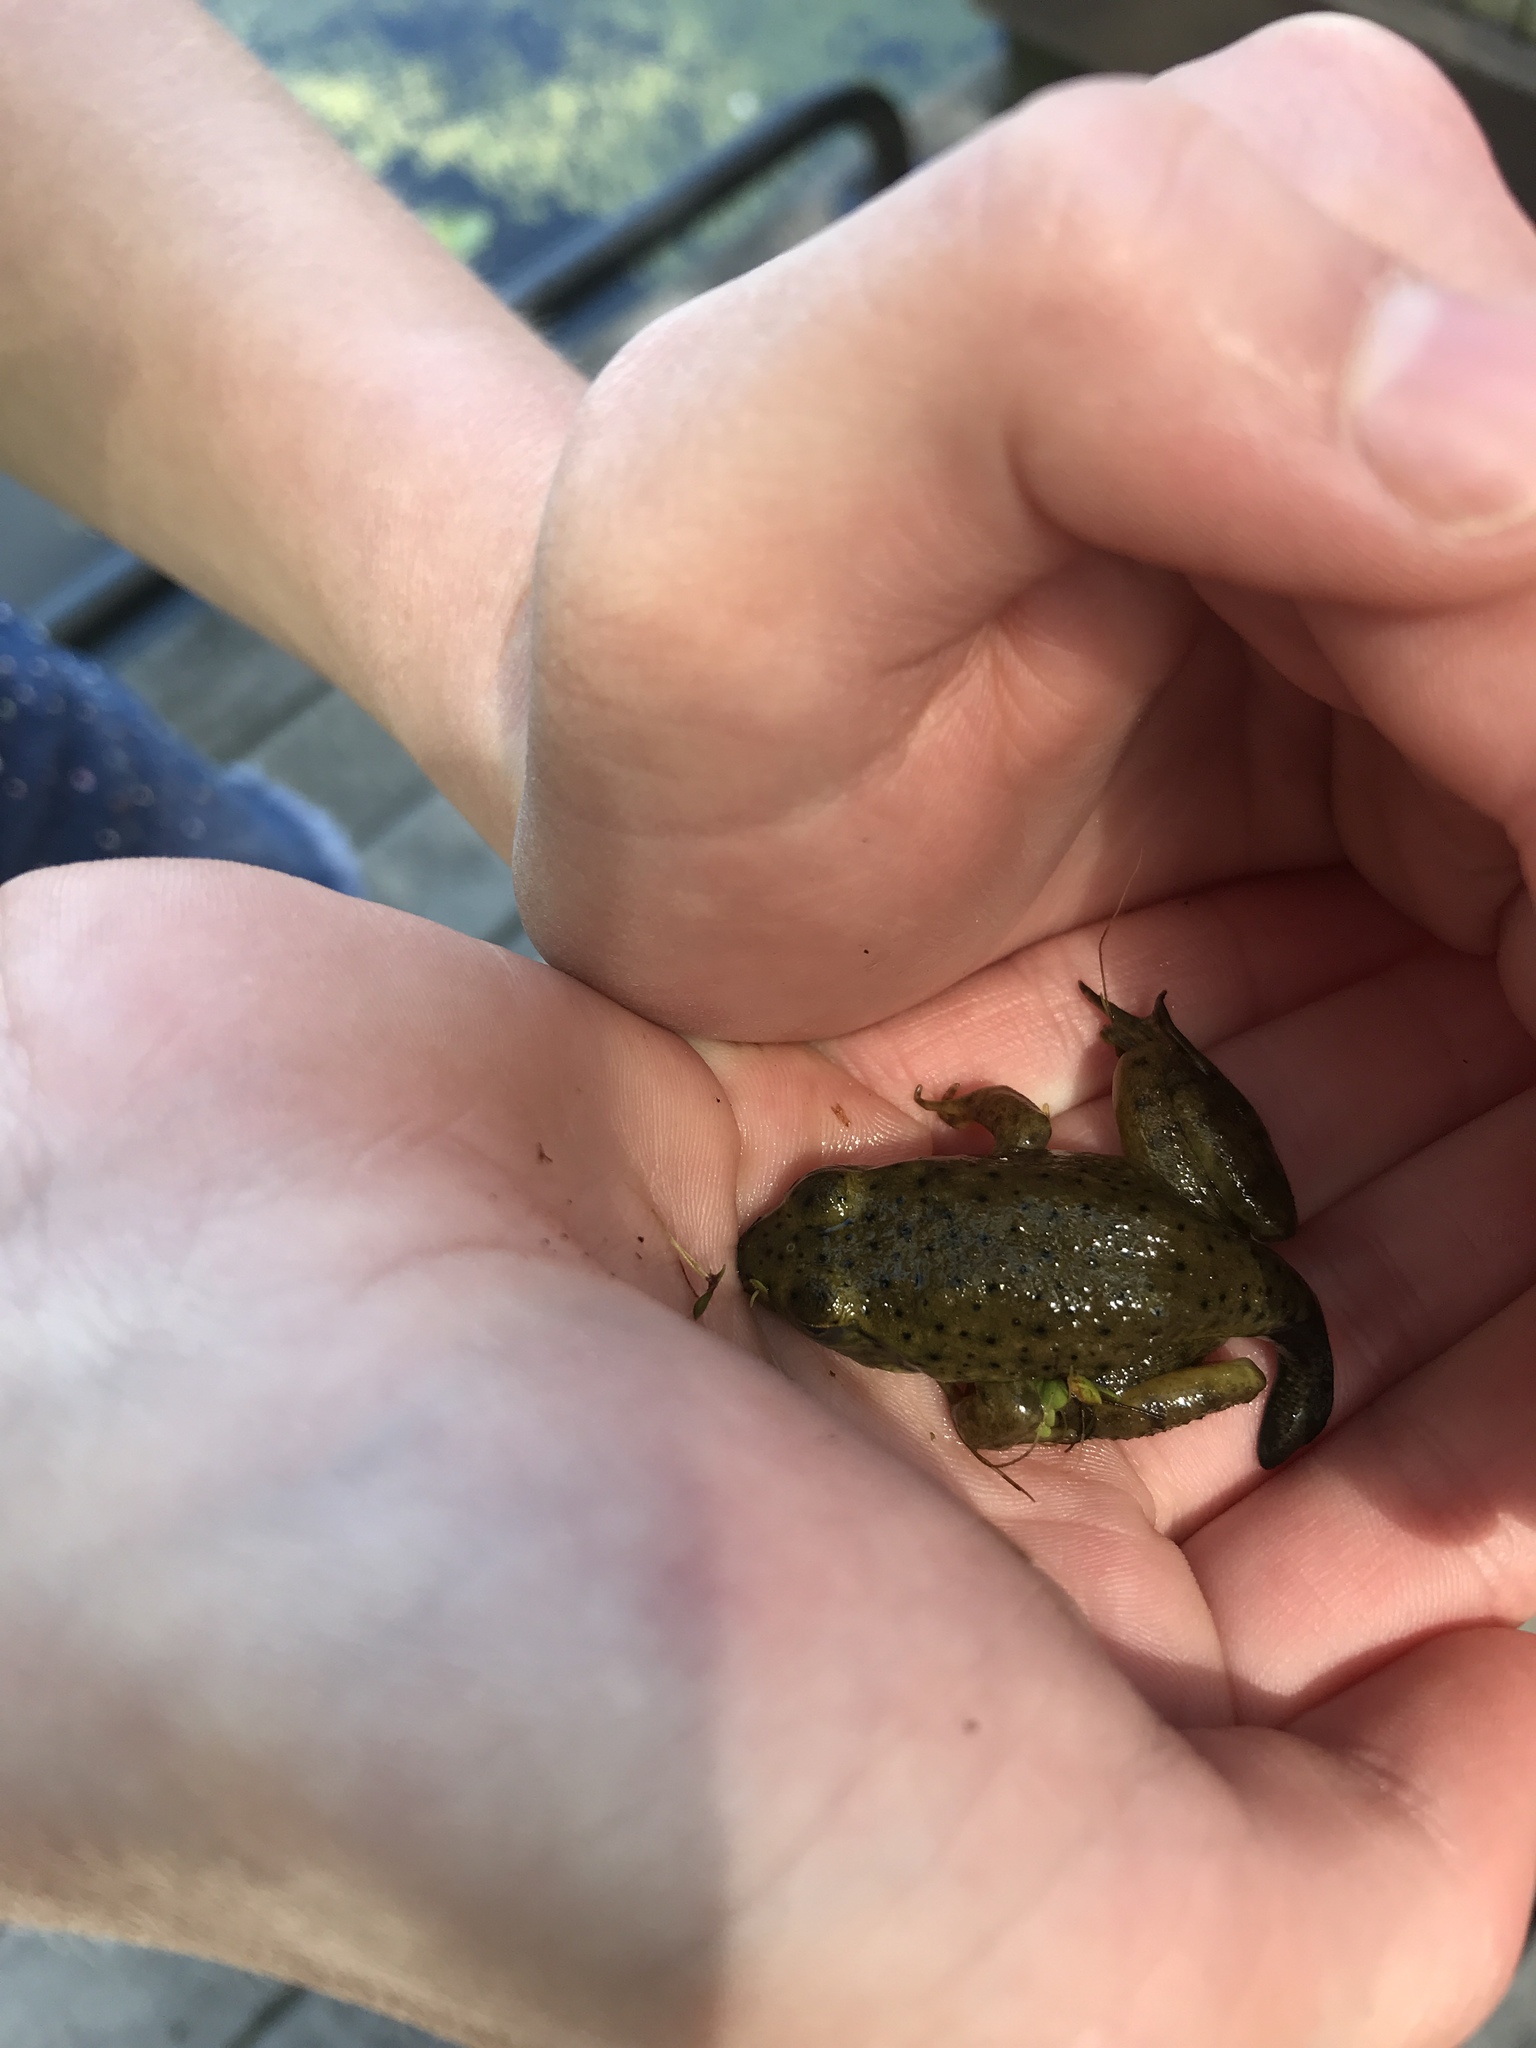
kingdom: Animalia
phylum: Chordata
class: Amphibia
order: Anura
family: Ranidae
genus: Lithobates
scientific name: Lithobates catesbeianus
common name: American bullfrog
